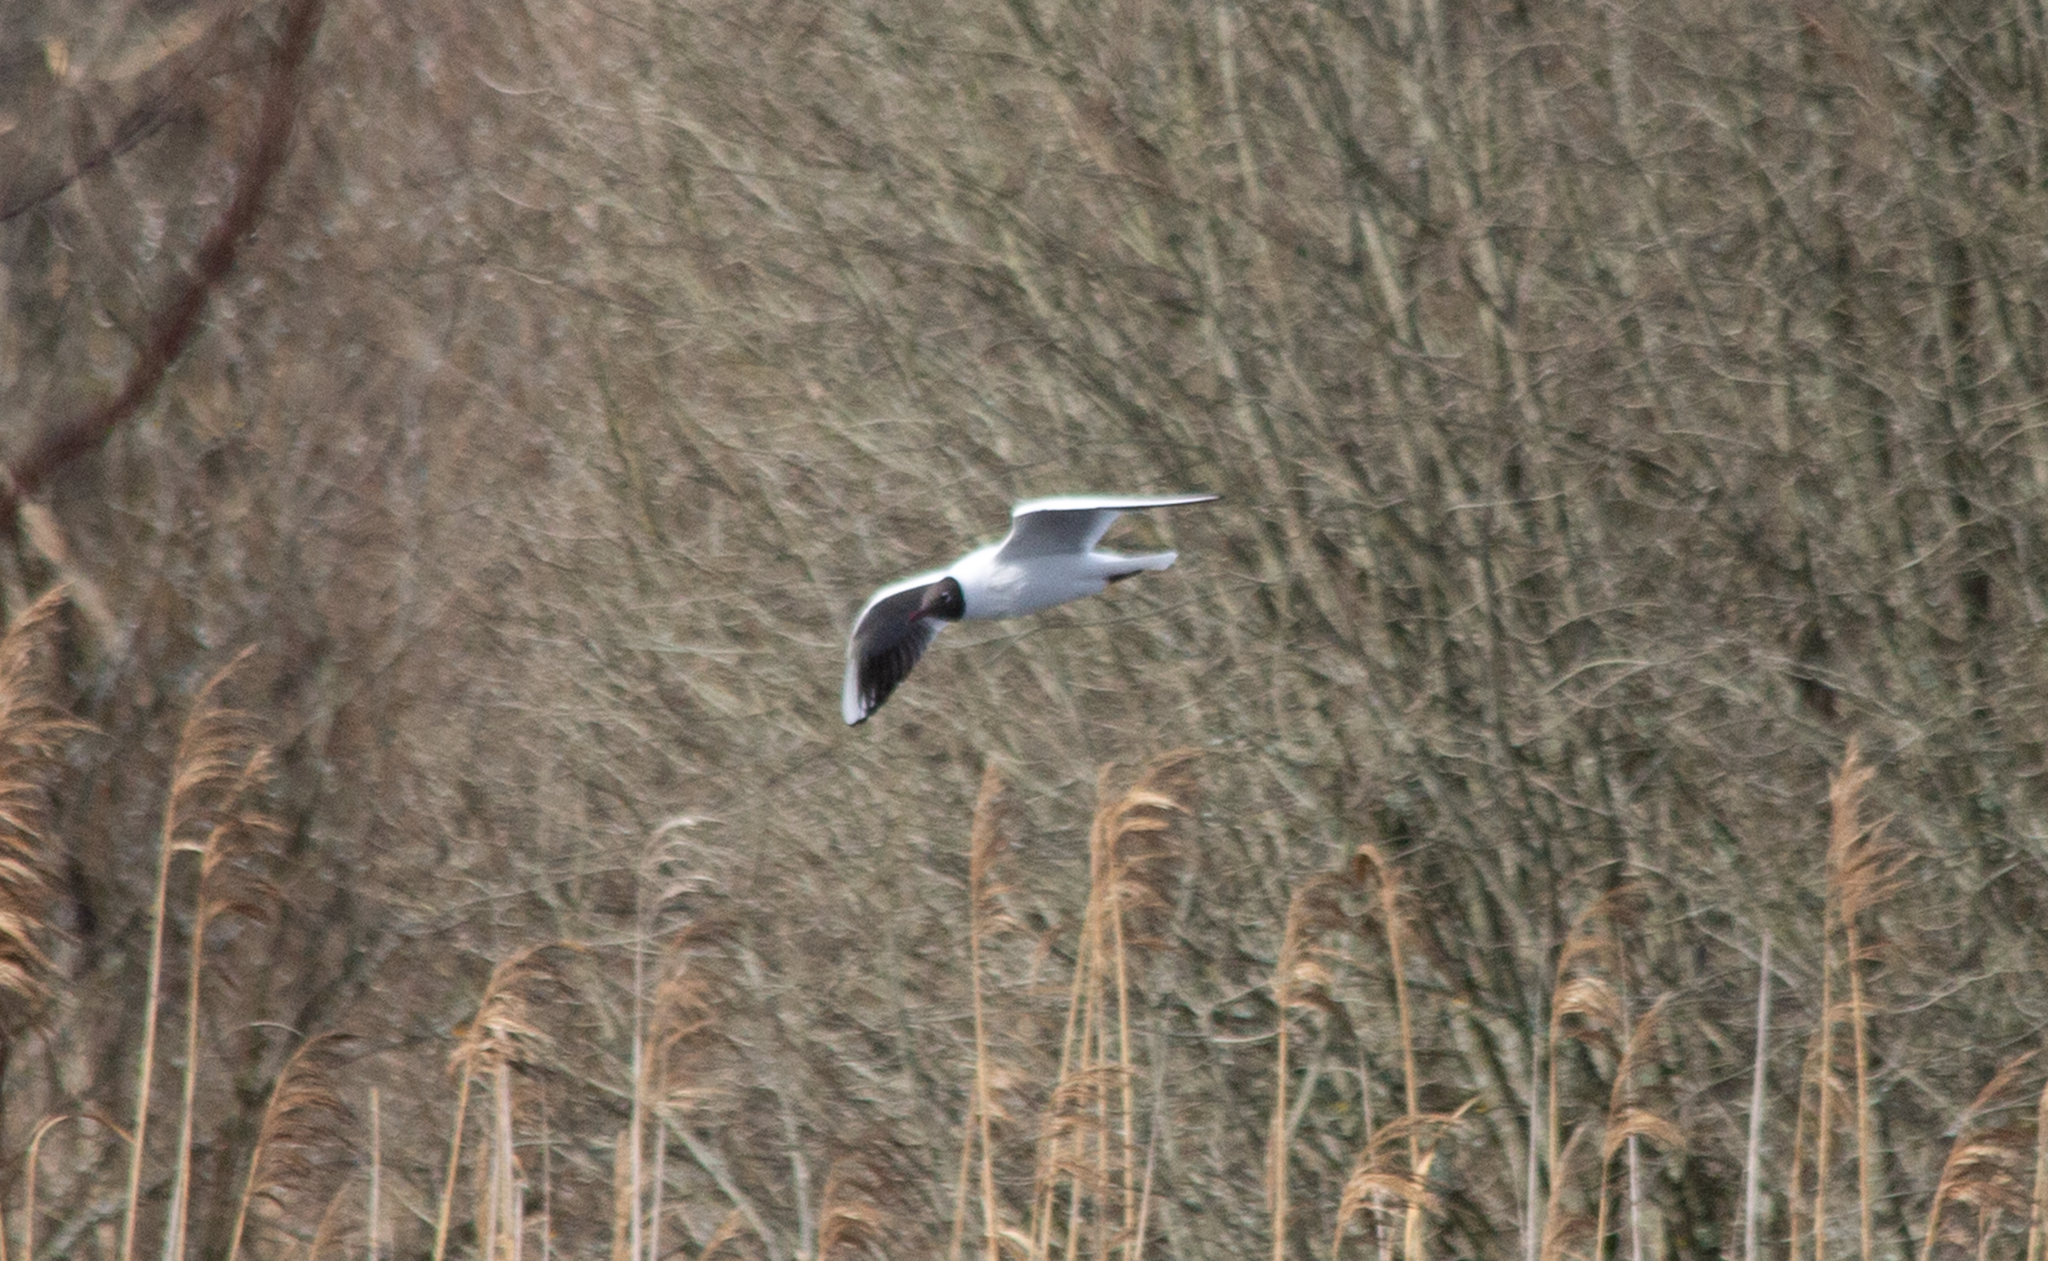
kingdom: Animalia
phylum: Chordata
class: Aves
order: Charadriiformes
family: Laridae
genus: Chroicocephalus
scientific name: Chroicocephalus ridibundus
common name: Black-headed gull
